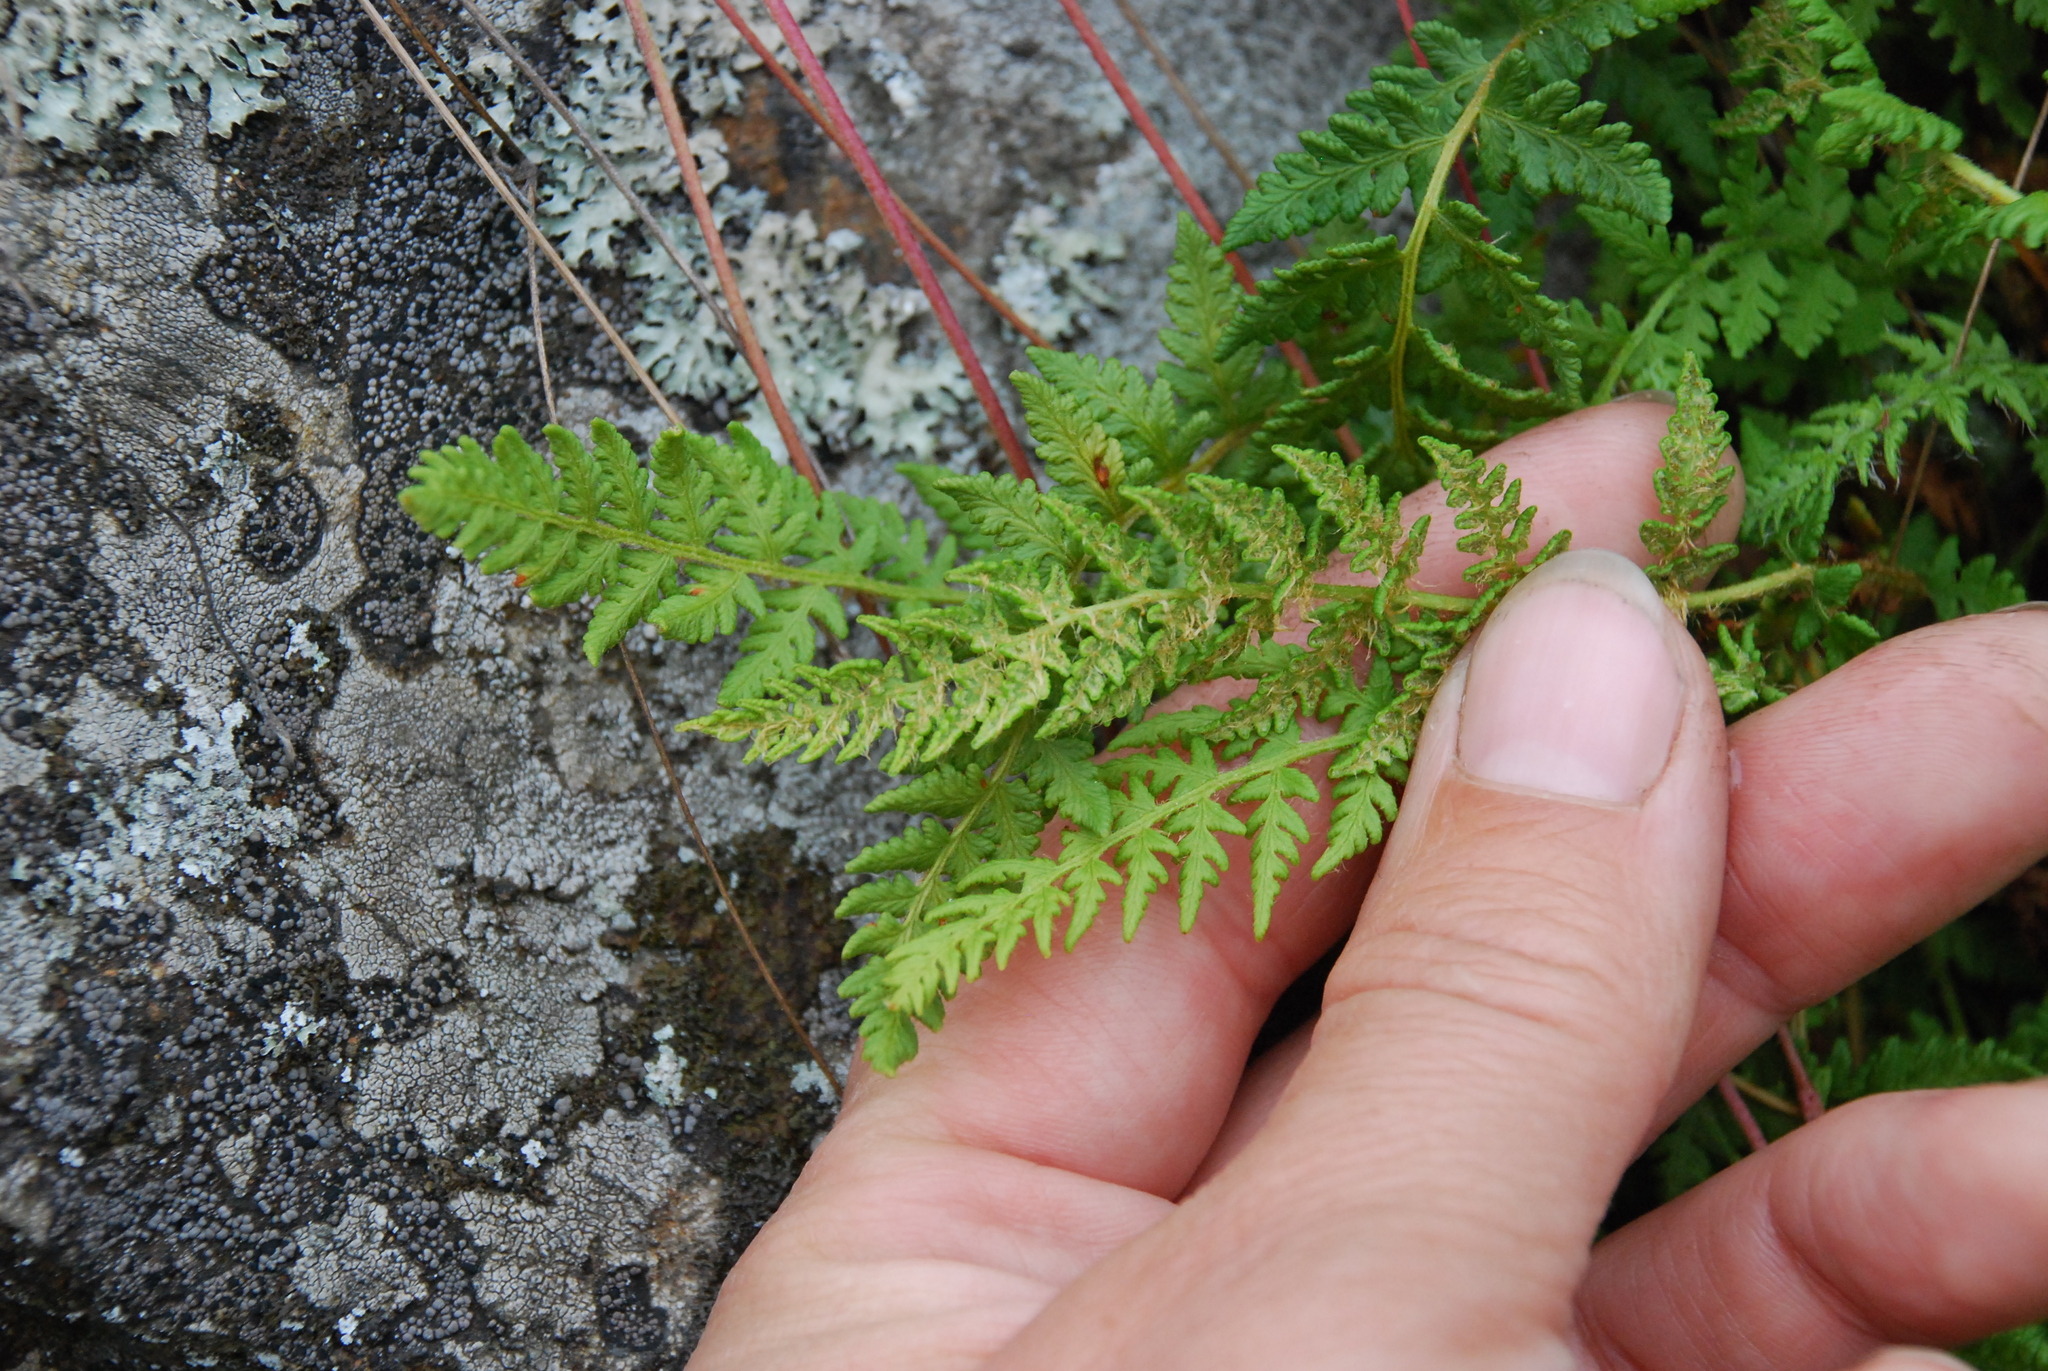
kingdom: Plantae
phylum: Tracheophyta
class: Polypodiopsida
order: Polypodiales
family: Woodsiaceae
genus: Woodsia
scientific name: Woodsia ilvensis
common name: Fragrant woodsia
